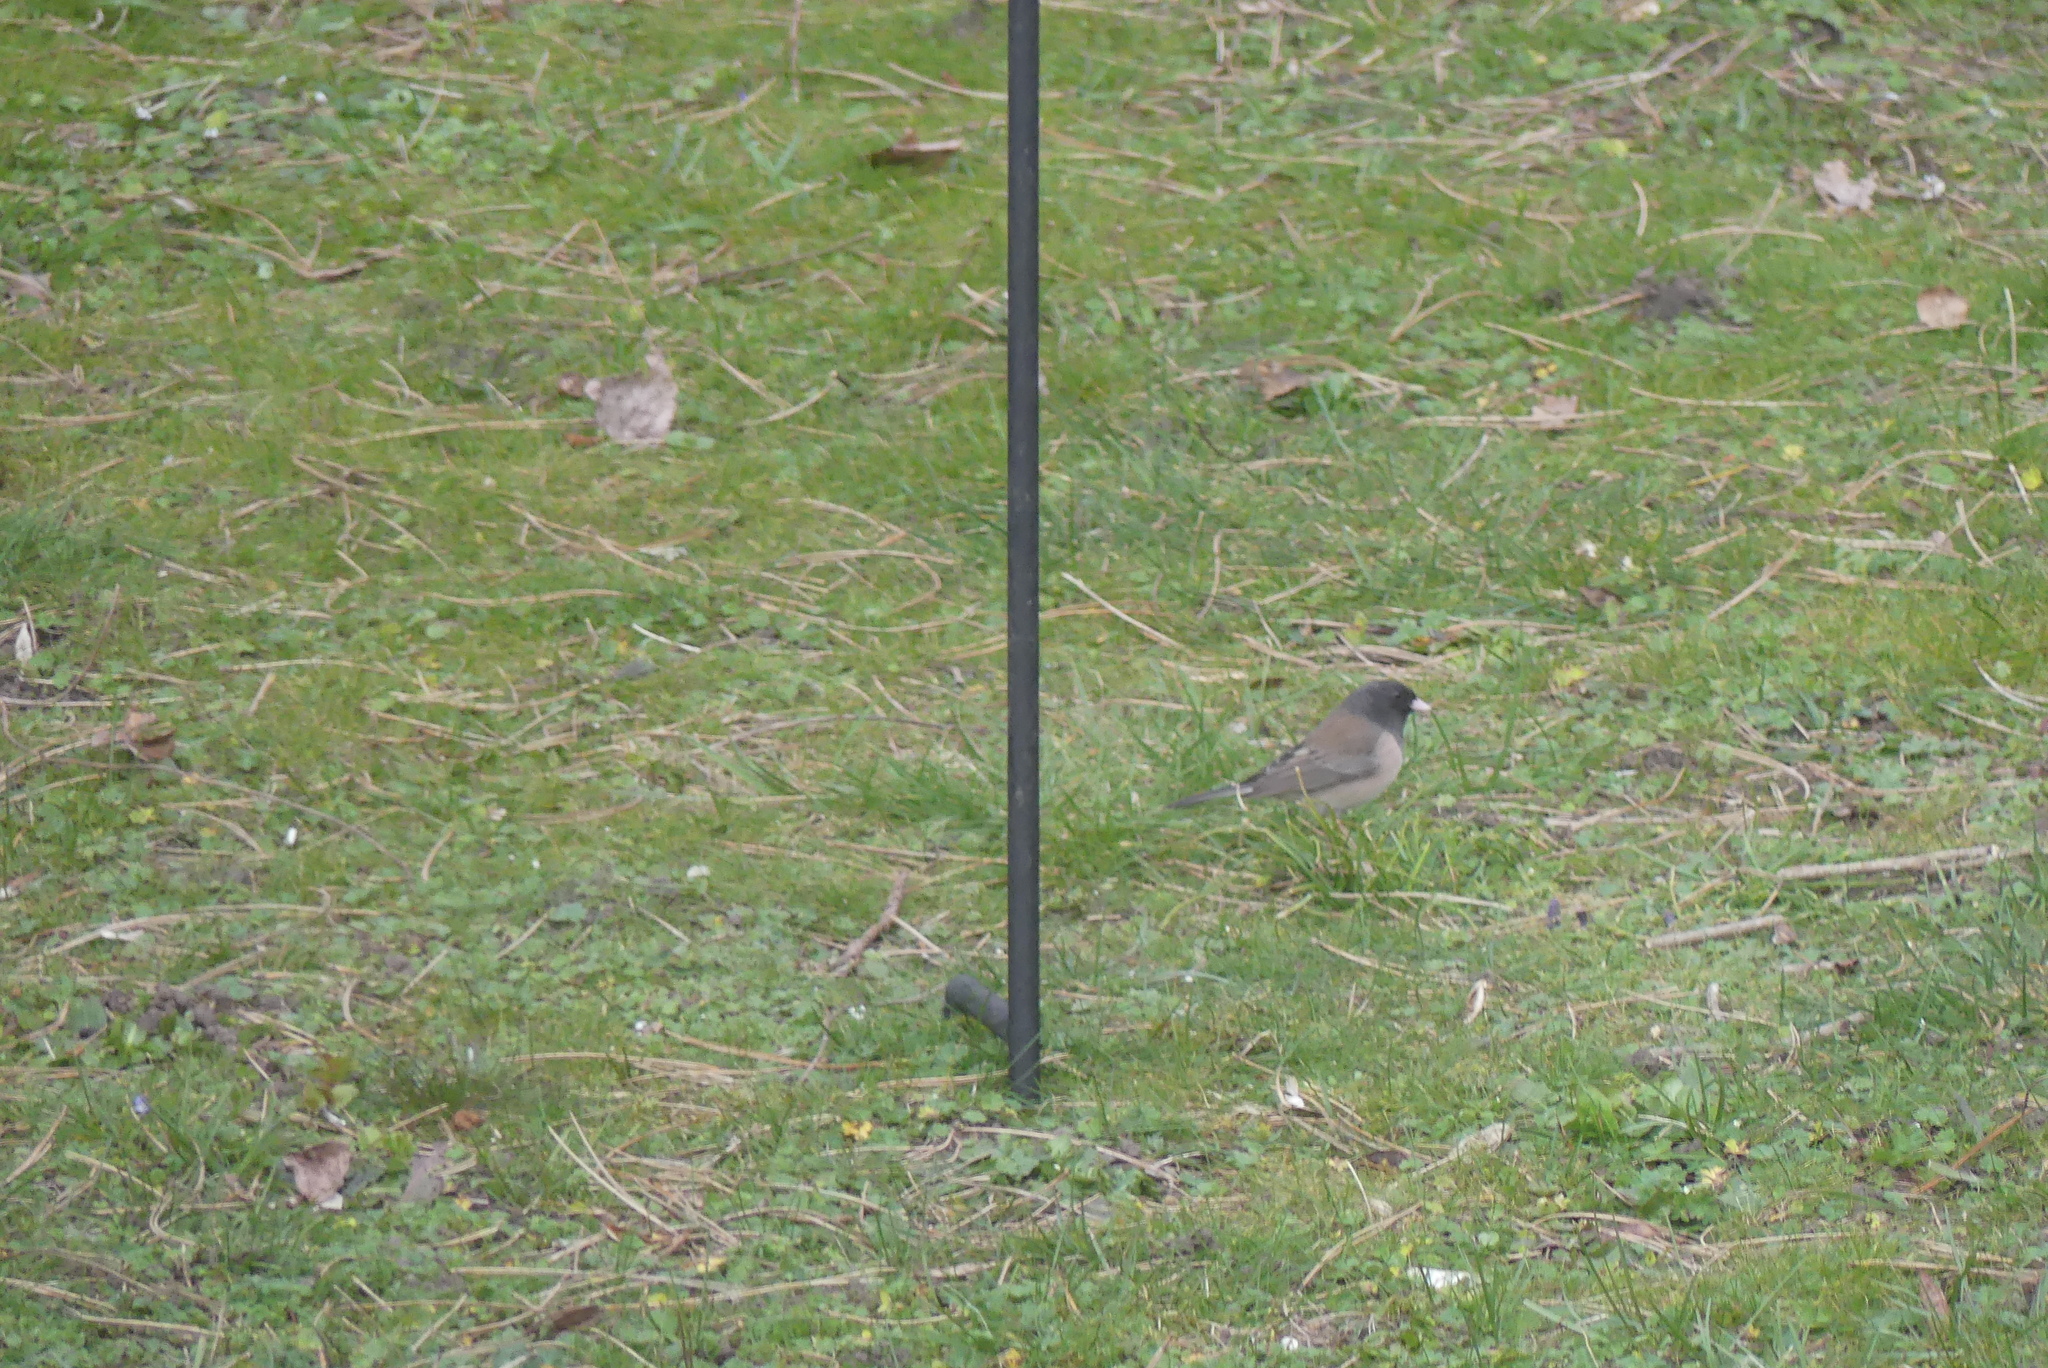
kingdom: Animalia
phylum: Chordata
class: Aves
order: Passeriformes
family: Passerellidae
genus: Junco
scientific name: Junco hyemalis
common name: Dark-eyed junco
